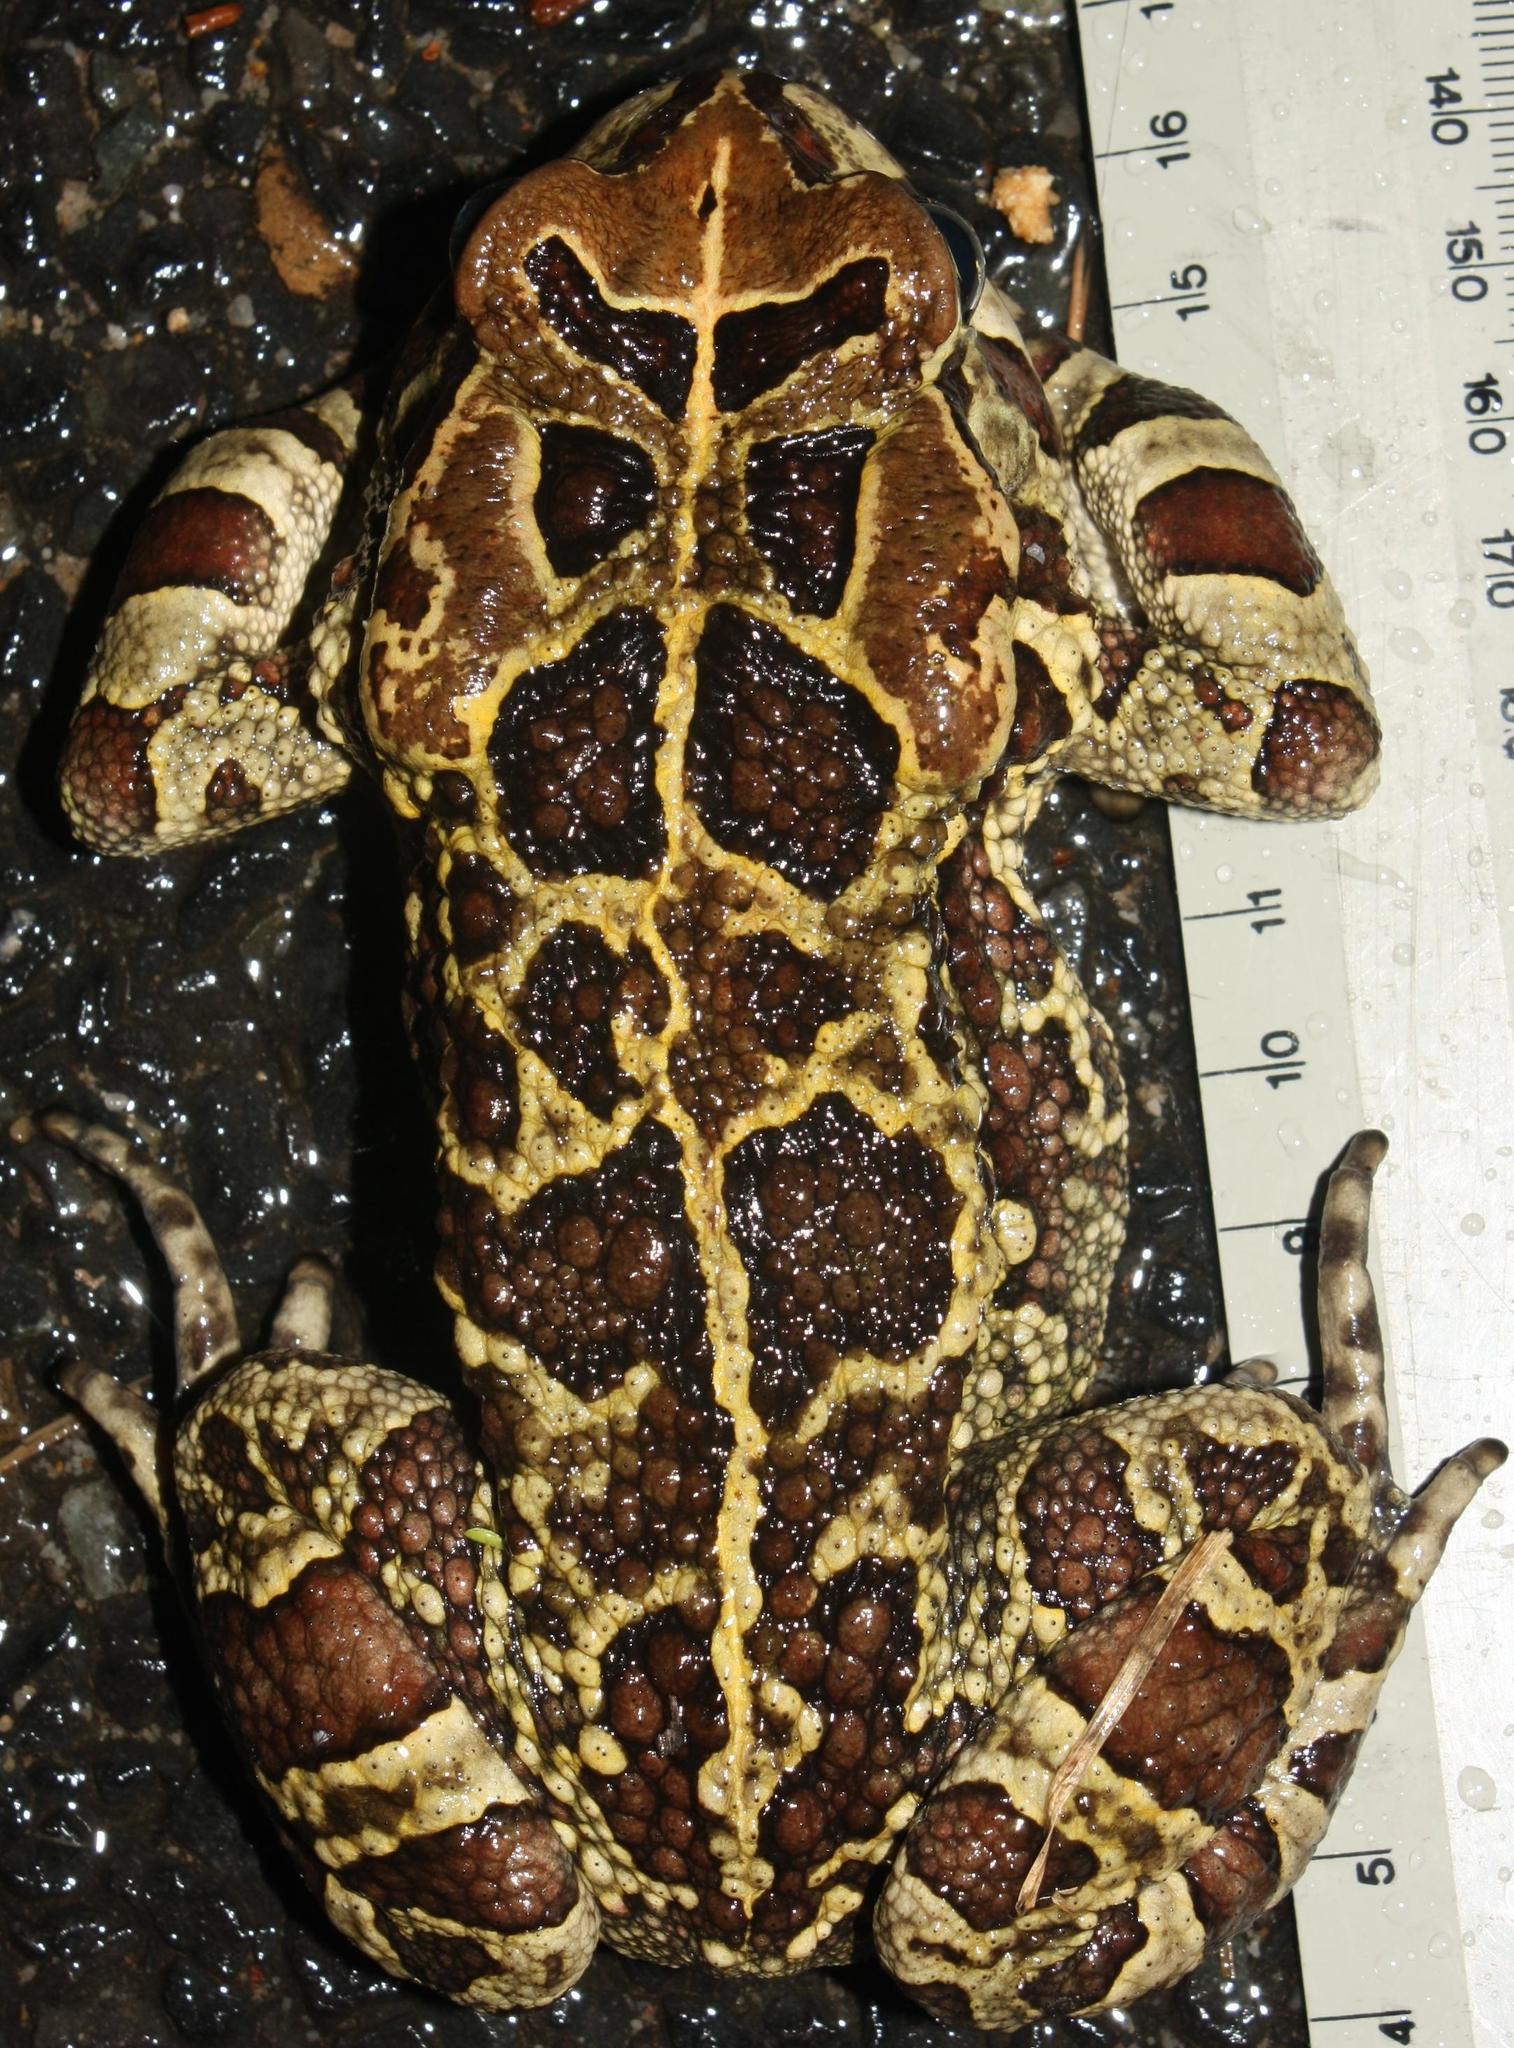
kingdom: Animalia
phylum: Chordata
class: Amphibia
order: Anura
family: Bufonidae
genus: Sclerophrys
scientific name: Sclerophrys pantherina
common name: Panther toad
